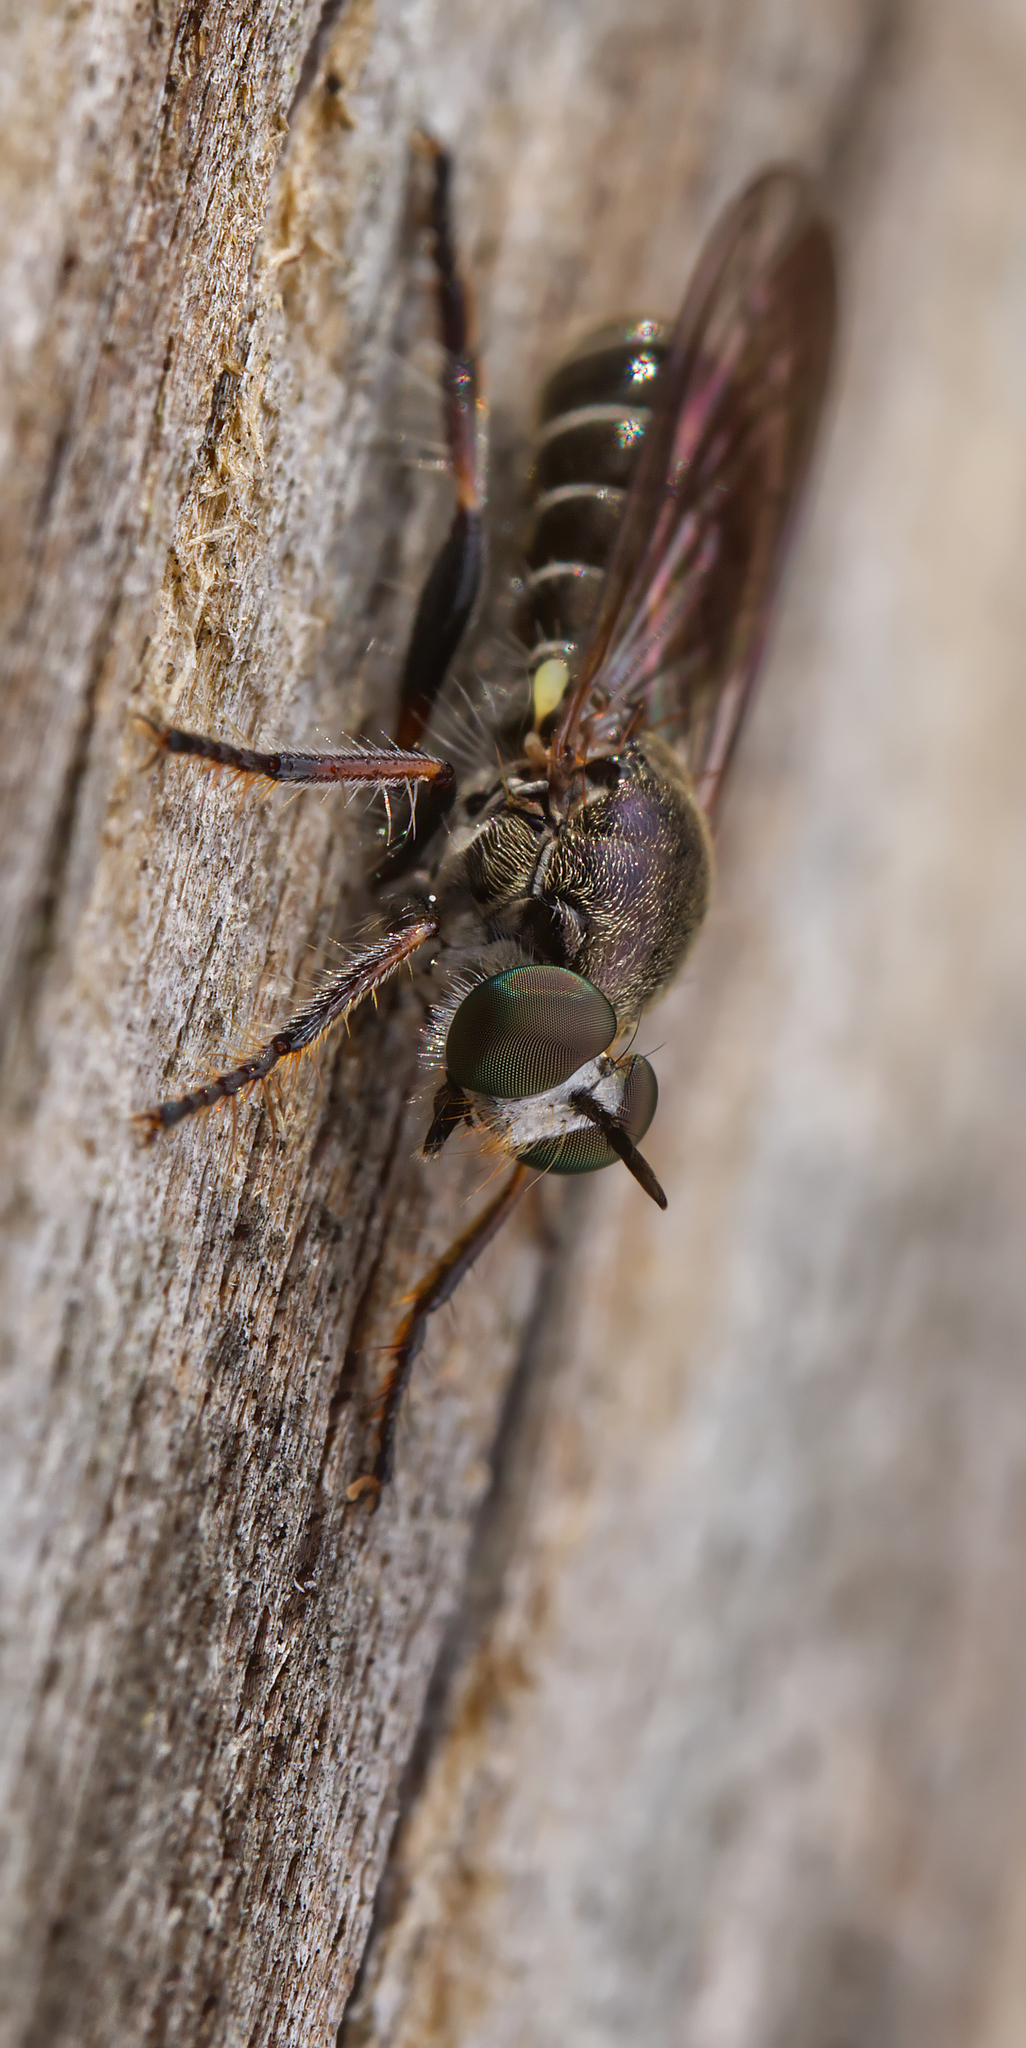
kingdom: Animalia
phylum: Arthropoda
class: Insecta
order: Diptera
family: Asilidae
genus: Atomosia
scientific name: Atomosia puella
